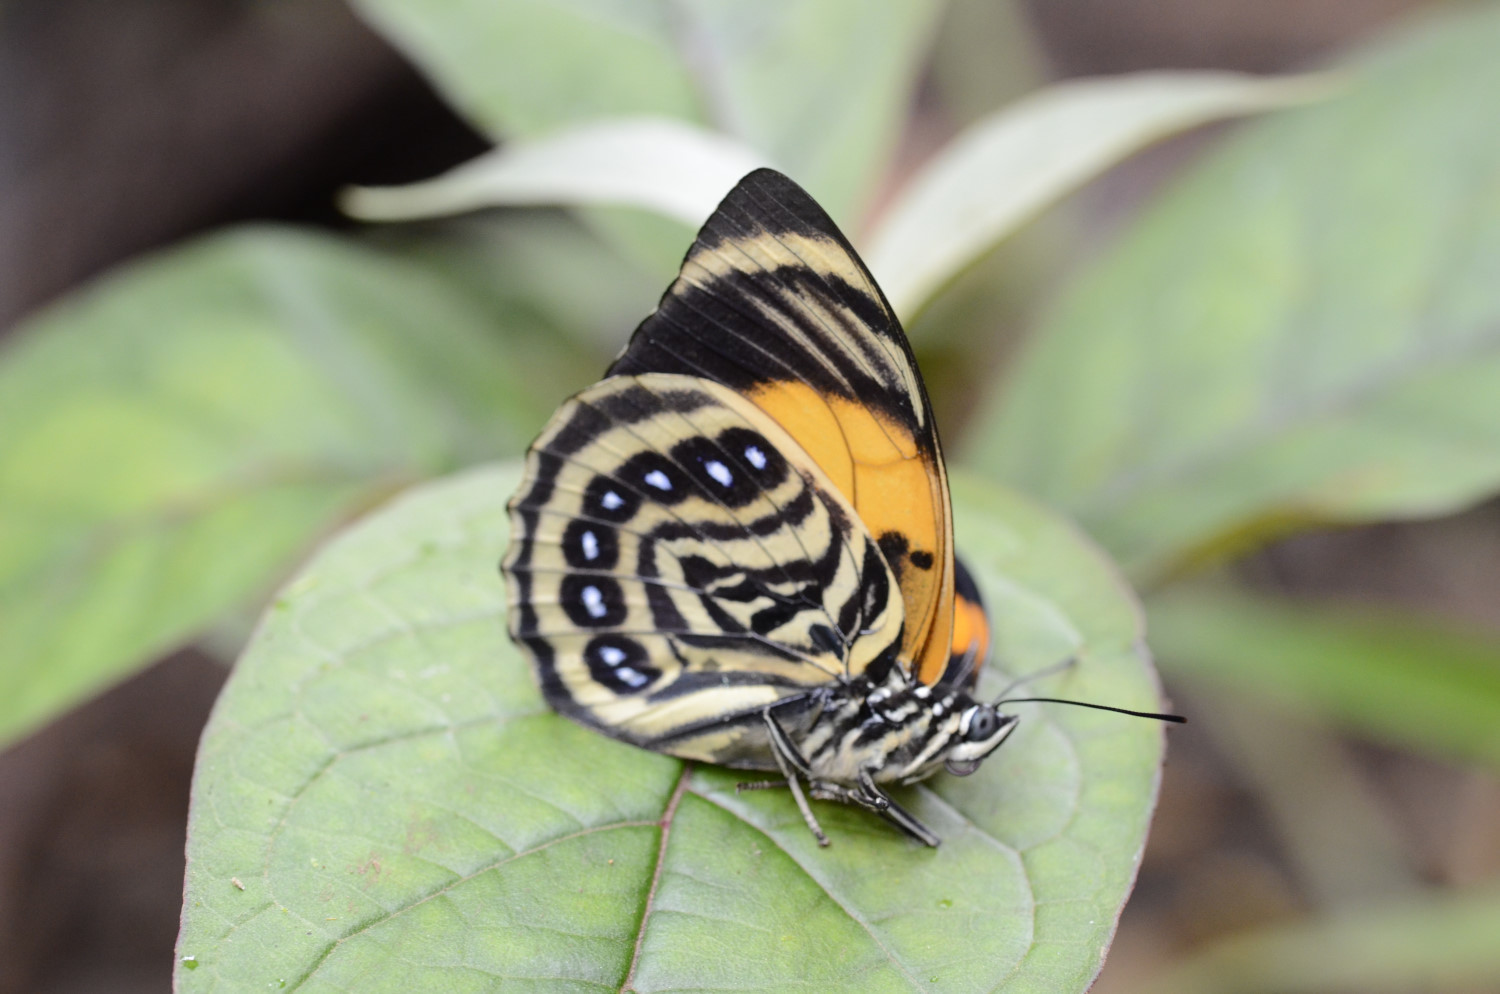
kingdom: Animalia
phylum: Arthropoda
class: Insecta
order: Lepidoptera
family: Nymphalidae
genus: Prepona
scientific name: Prepona amydon
